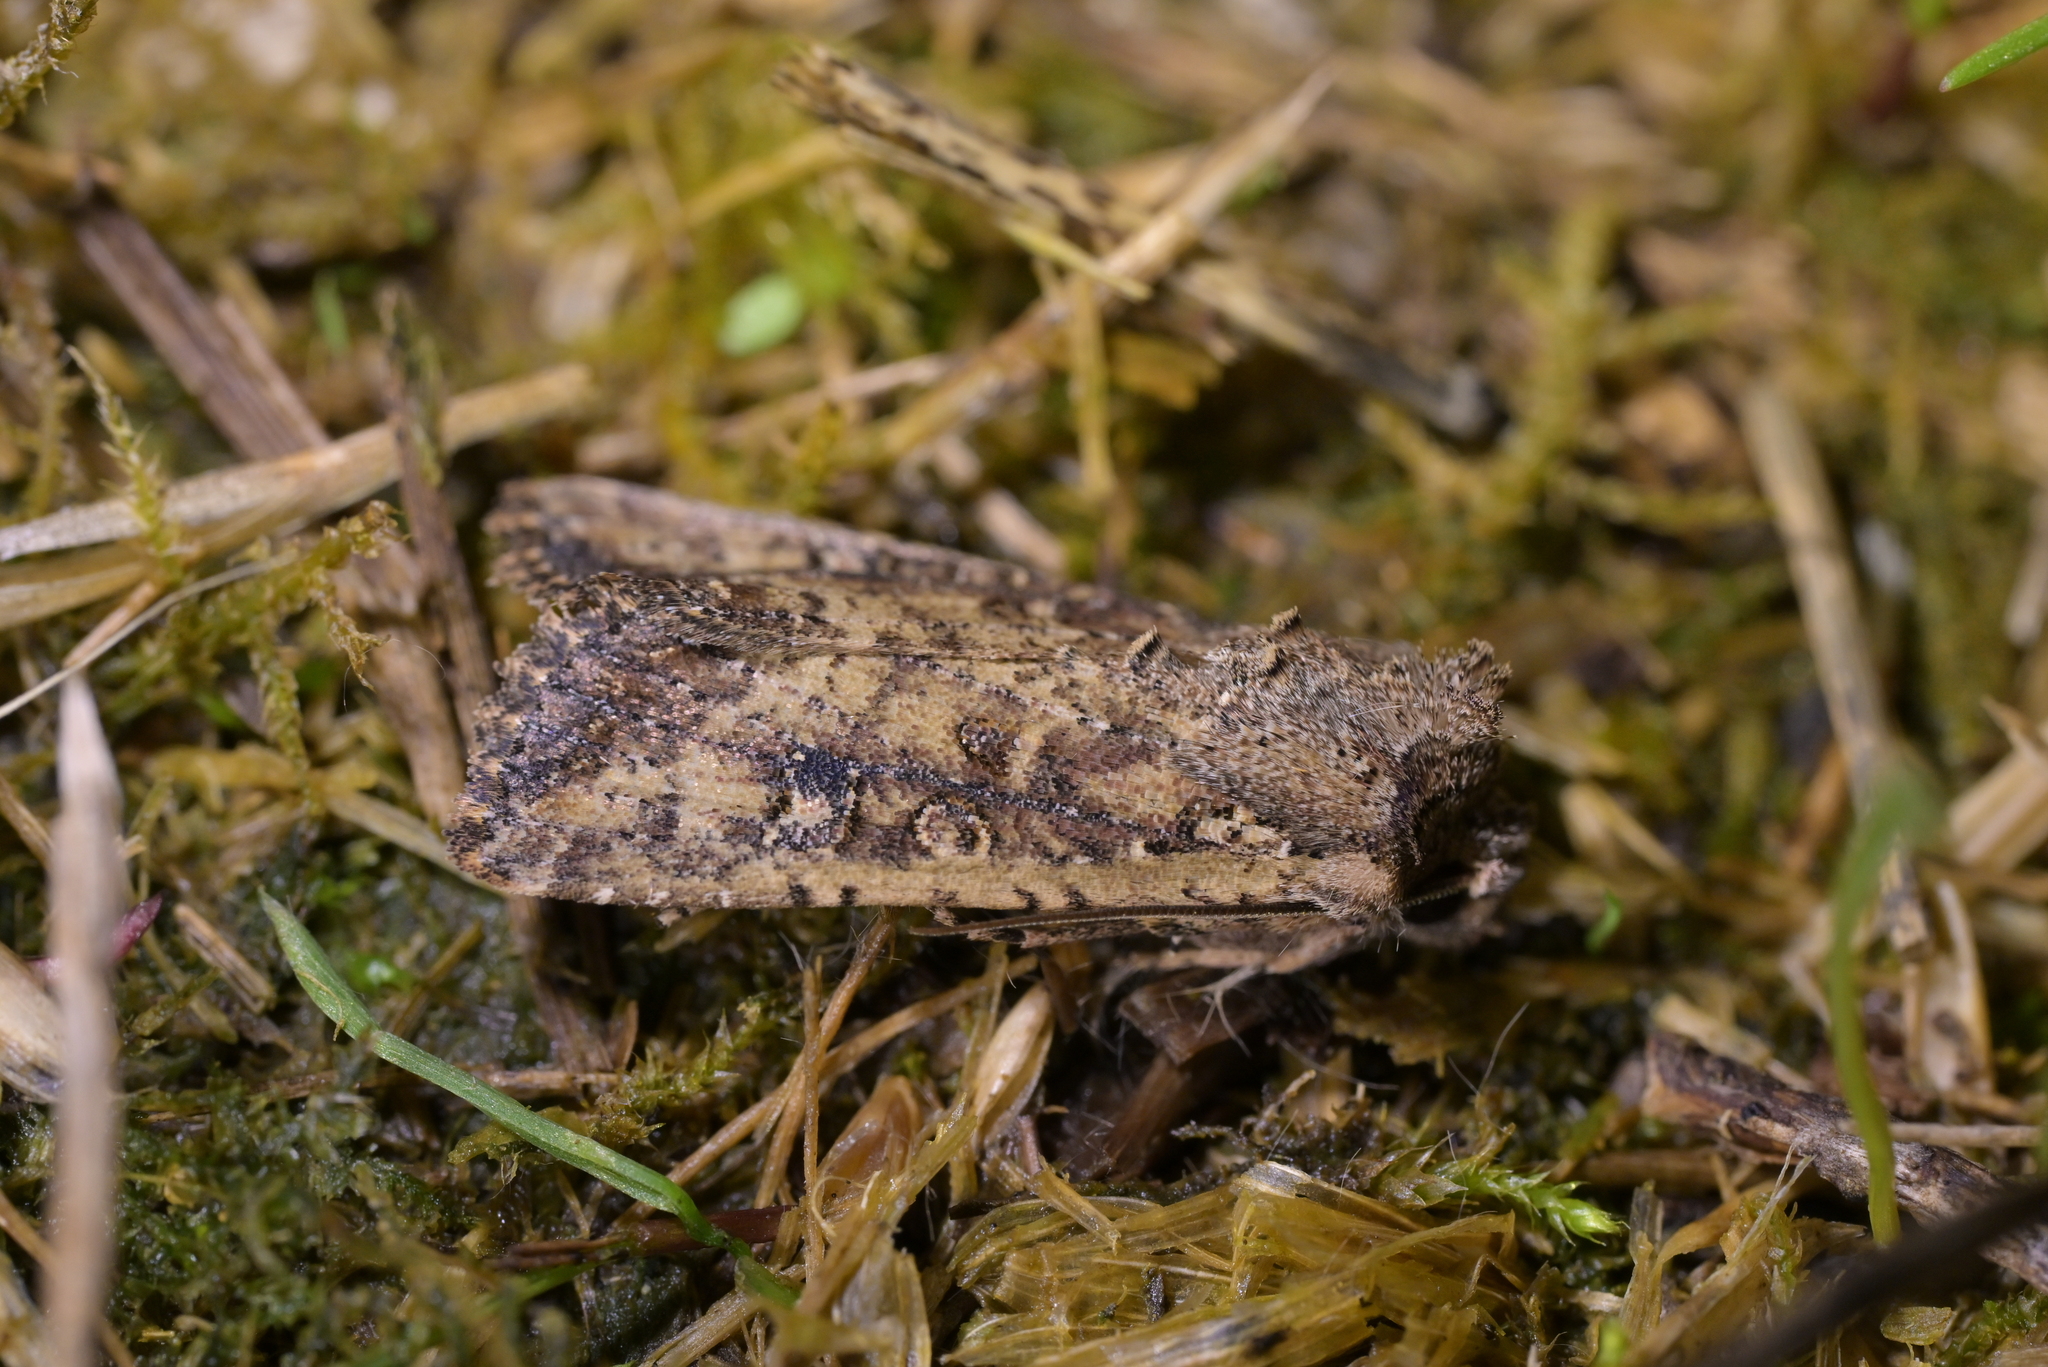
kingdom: Animalia
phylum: Arthropoda
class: Insecta
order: Lepidoptera
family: Noctuidae
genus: Ichneutica
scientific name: Ichneutica morosa
